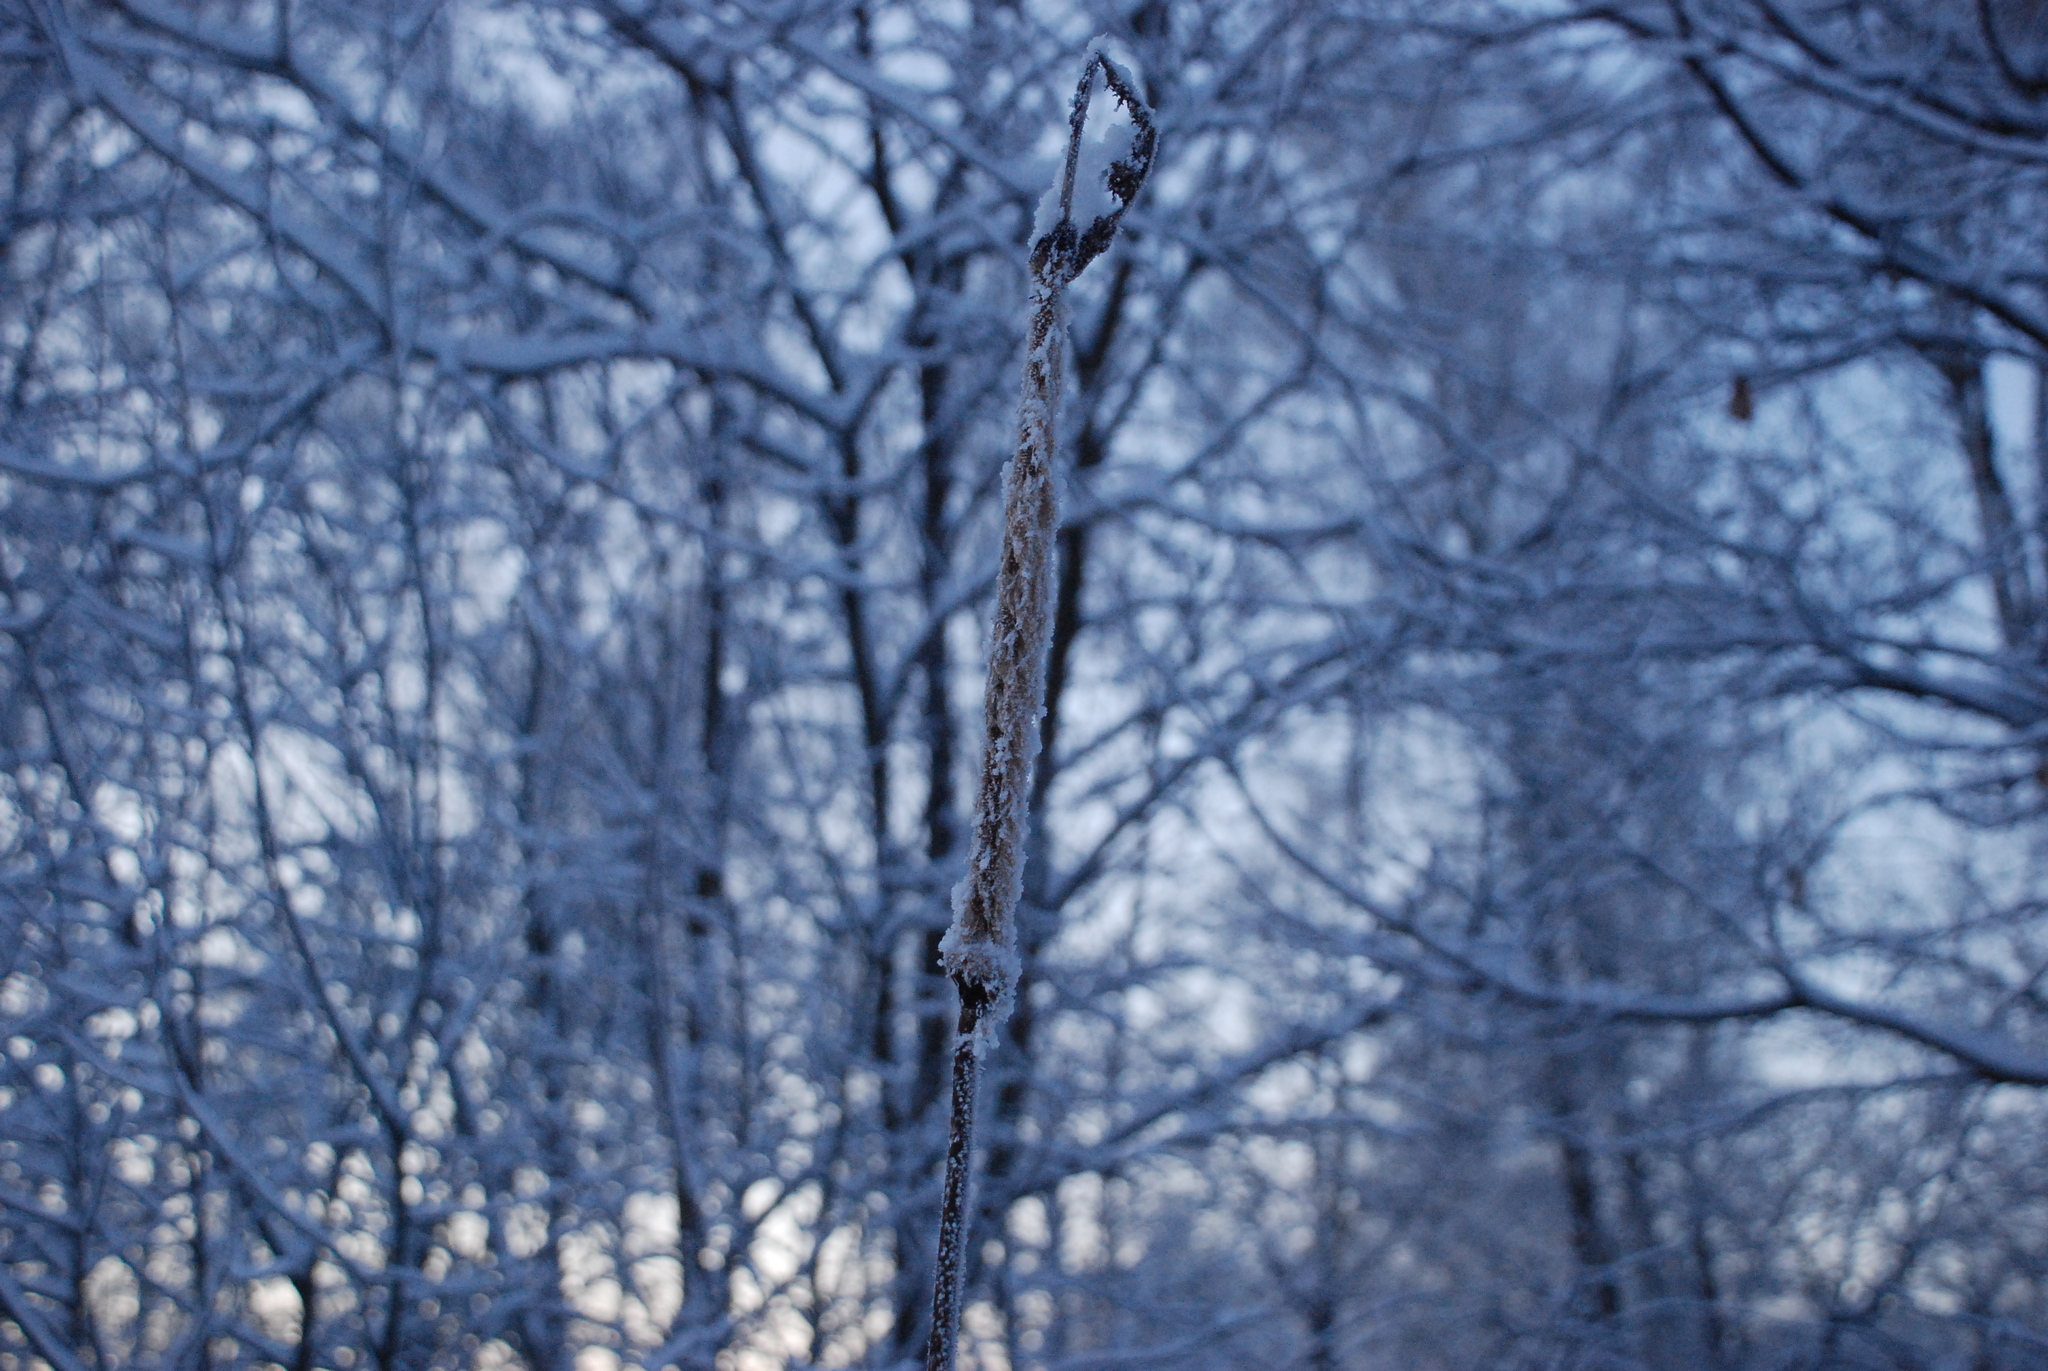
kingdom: Plantae
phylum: Tracheophyta
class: Liliopsida
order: Poales
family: Typhaceae
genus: Typha
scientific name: Typha latifolia
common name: Broadleaf cattail
